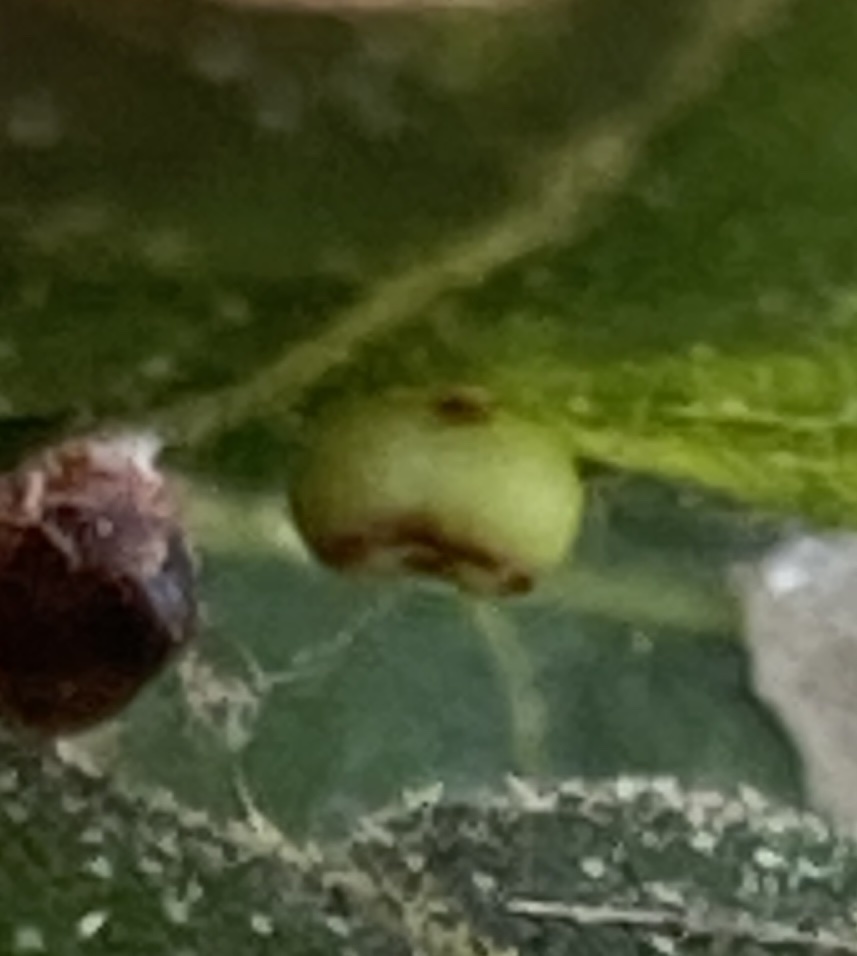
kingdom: Animalia
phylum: Arthropoda
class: Insecta
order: Hymenoptera
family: Cynipidae
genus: Dryocosmus
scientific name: Dryocosmus
